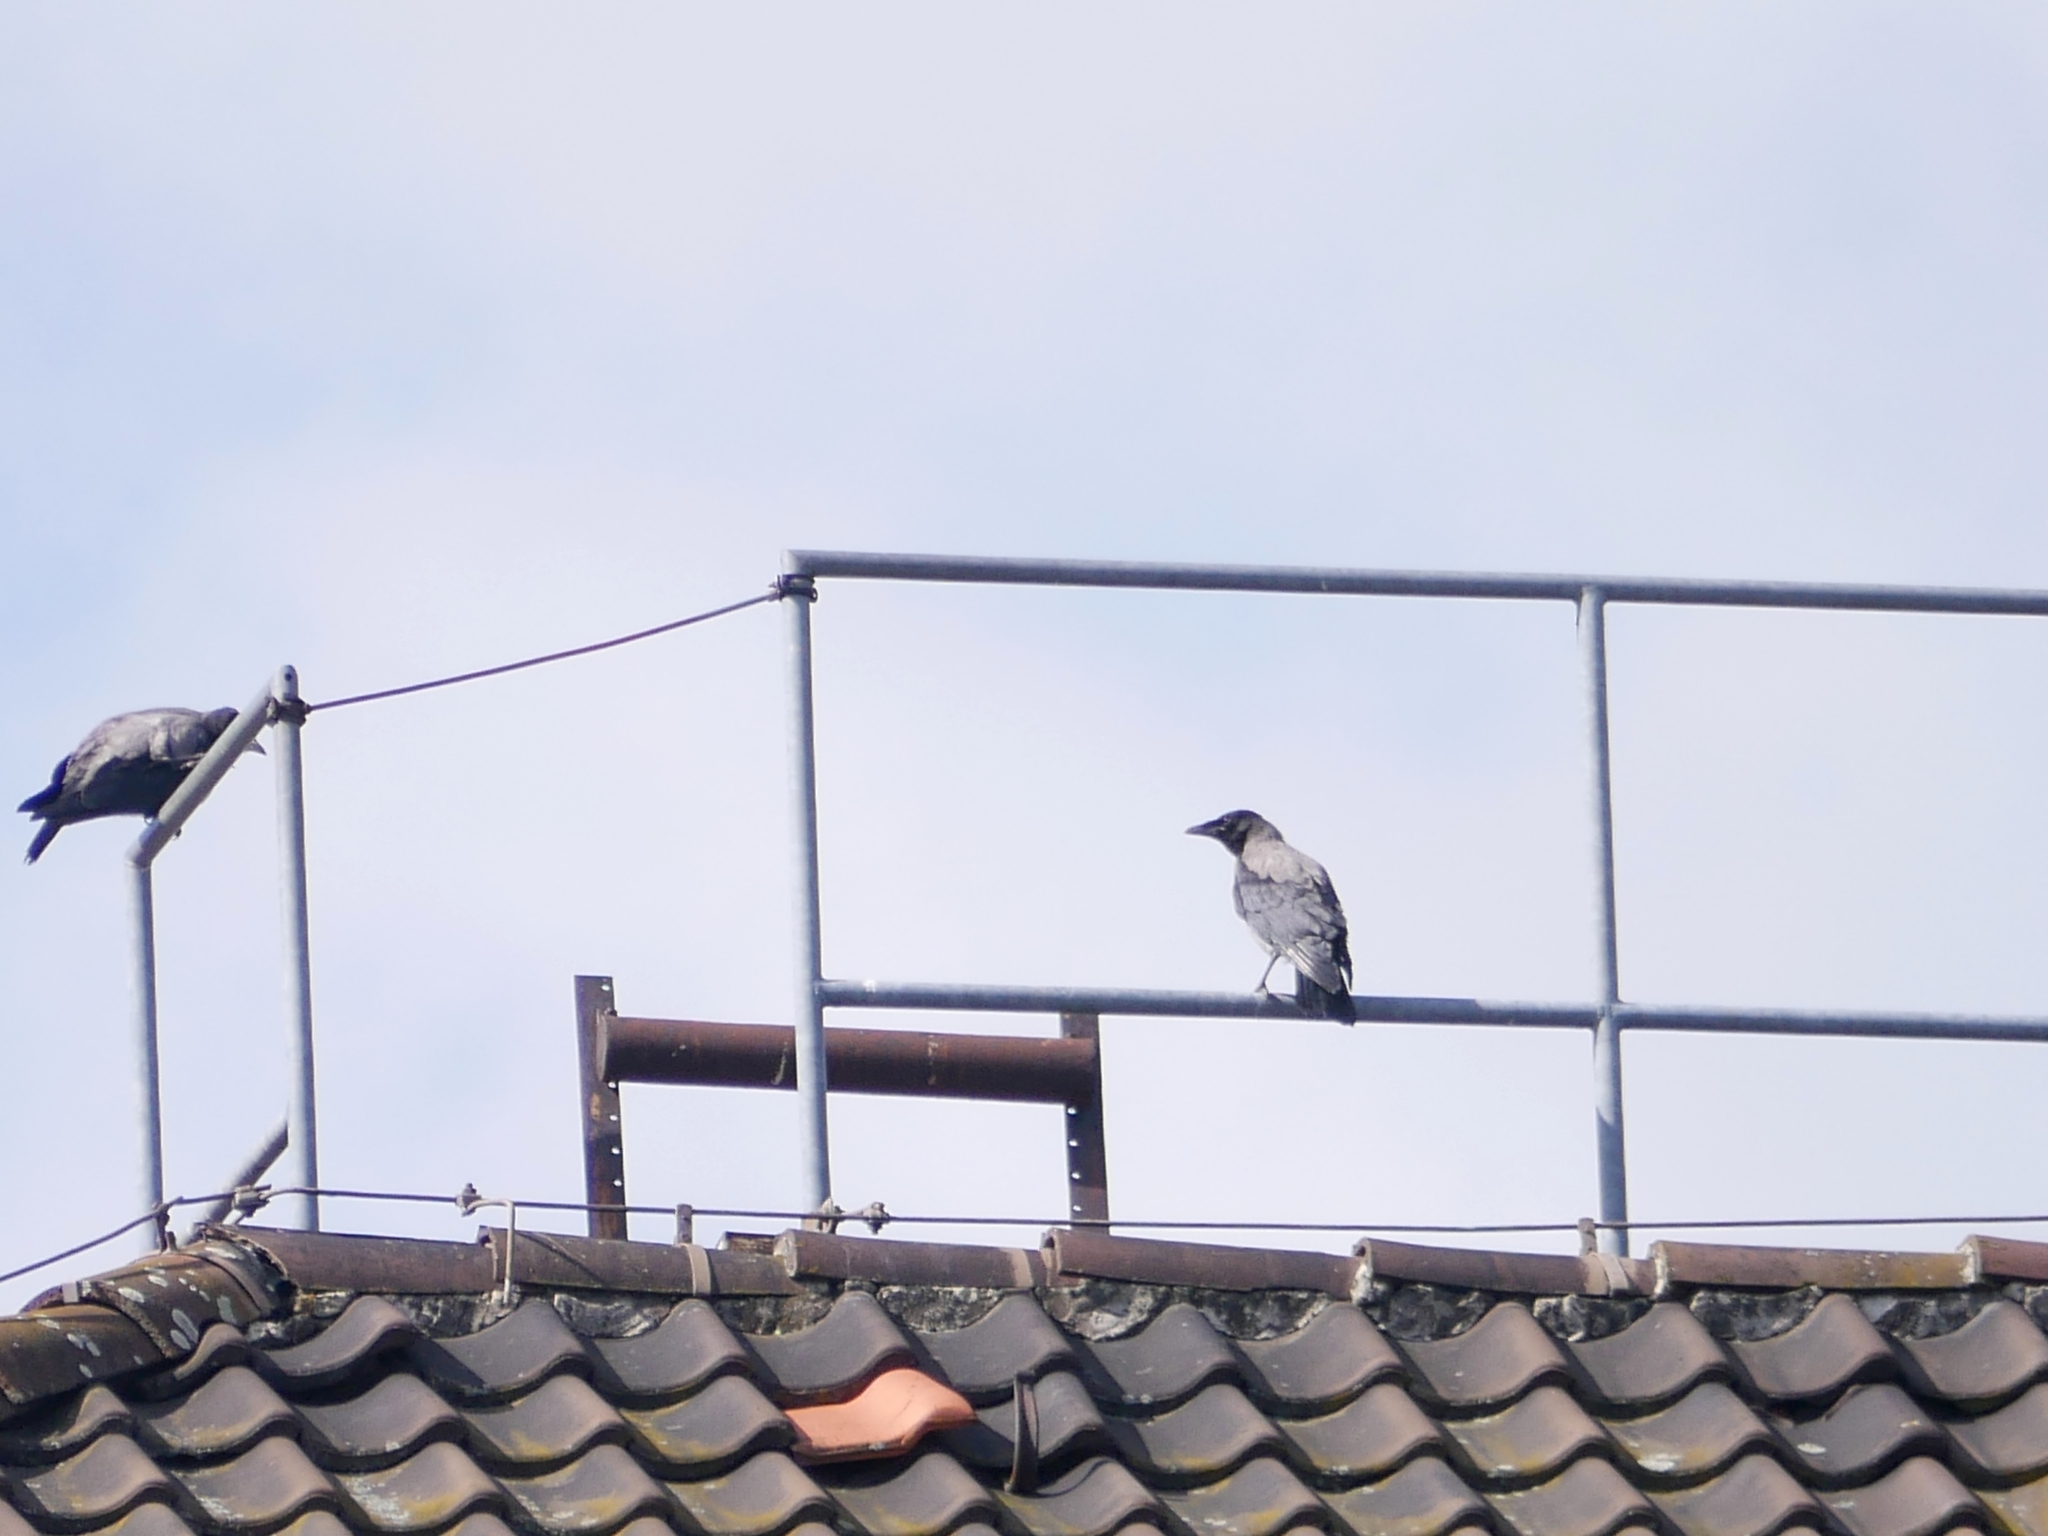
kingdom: Animalia
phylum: Chordata
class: Aves
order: Passeriformes
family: Corvidae
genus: Corvus
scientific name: Corvus cornix
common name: Hooded crow
